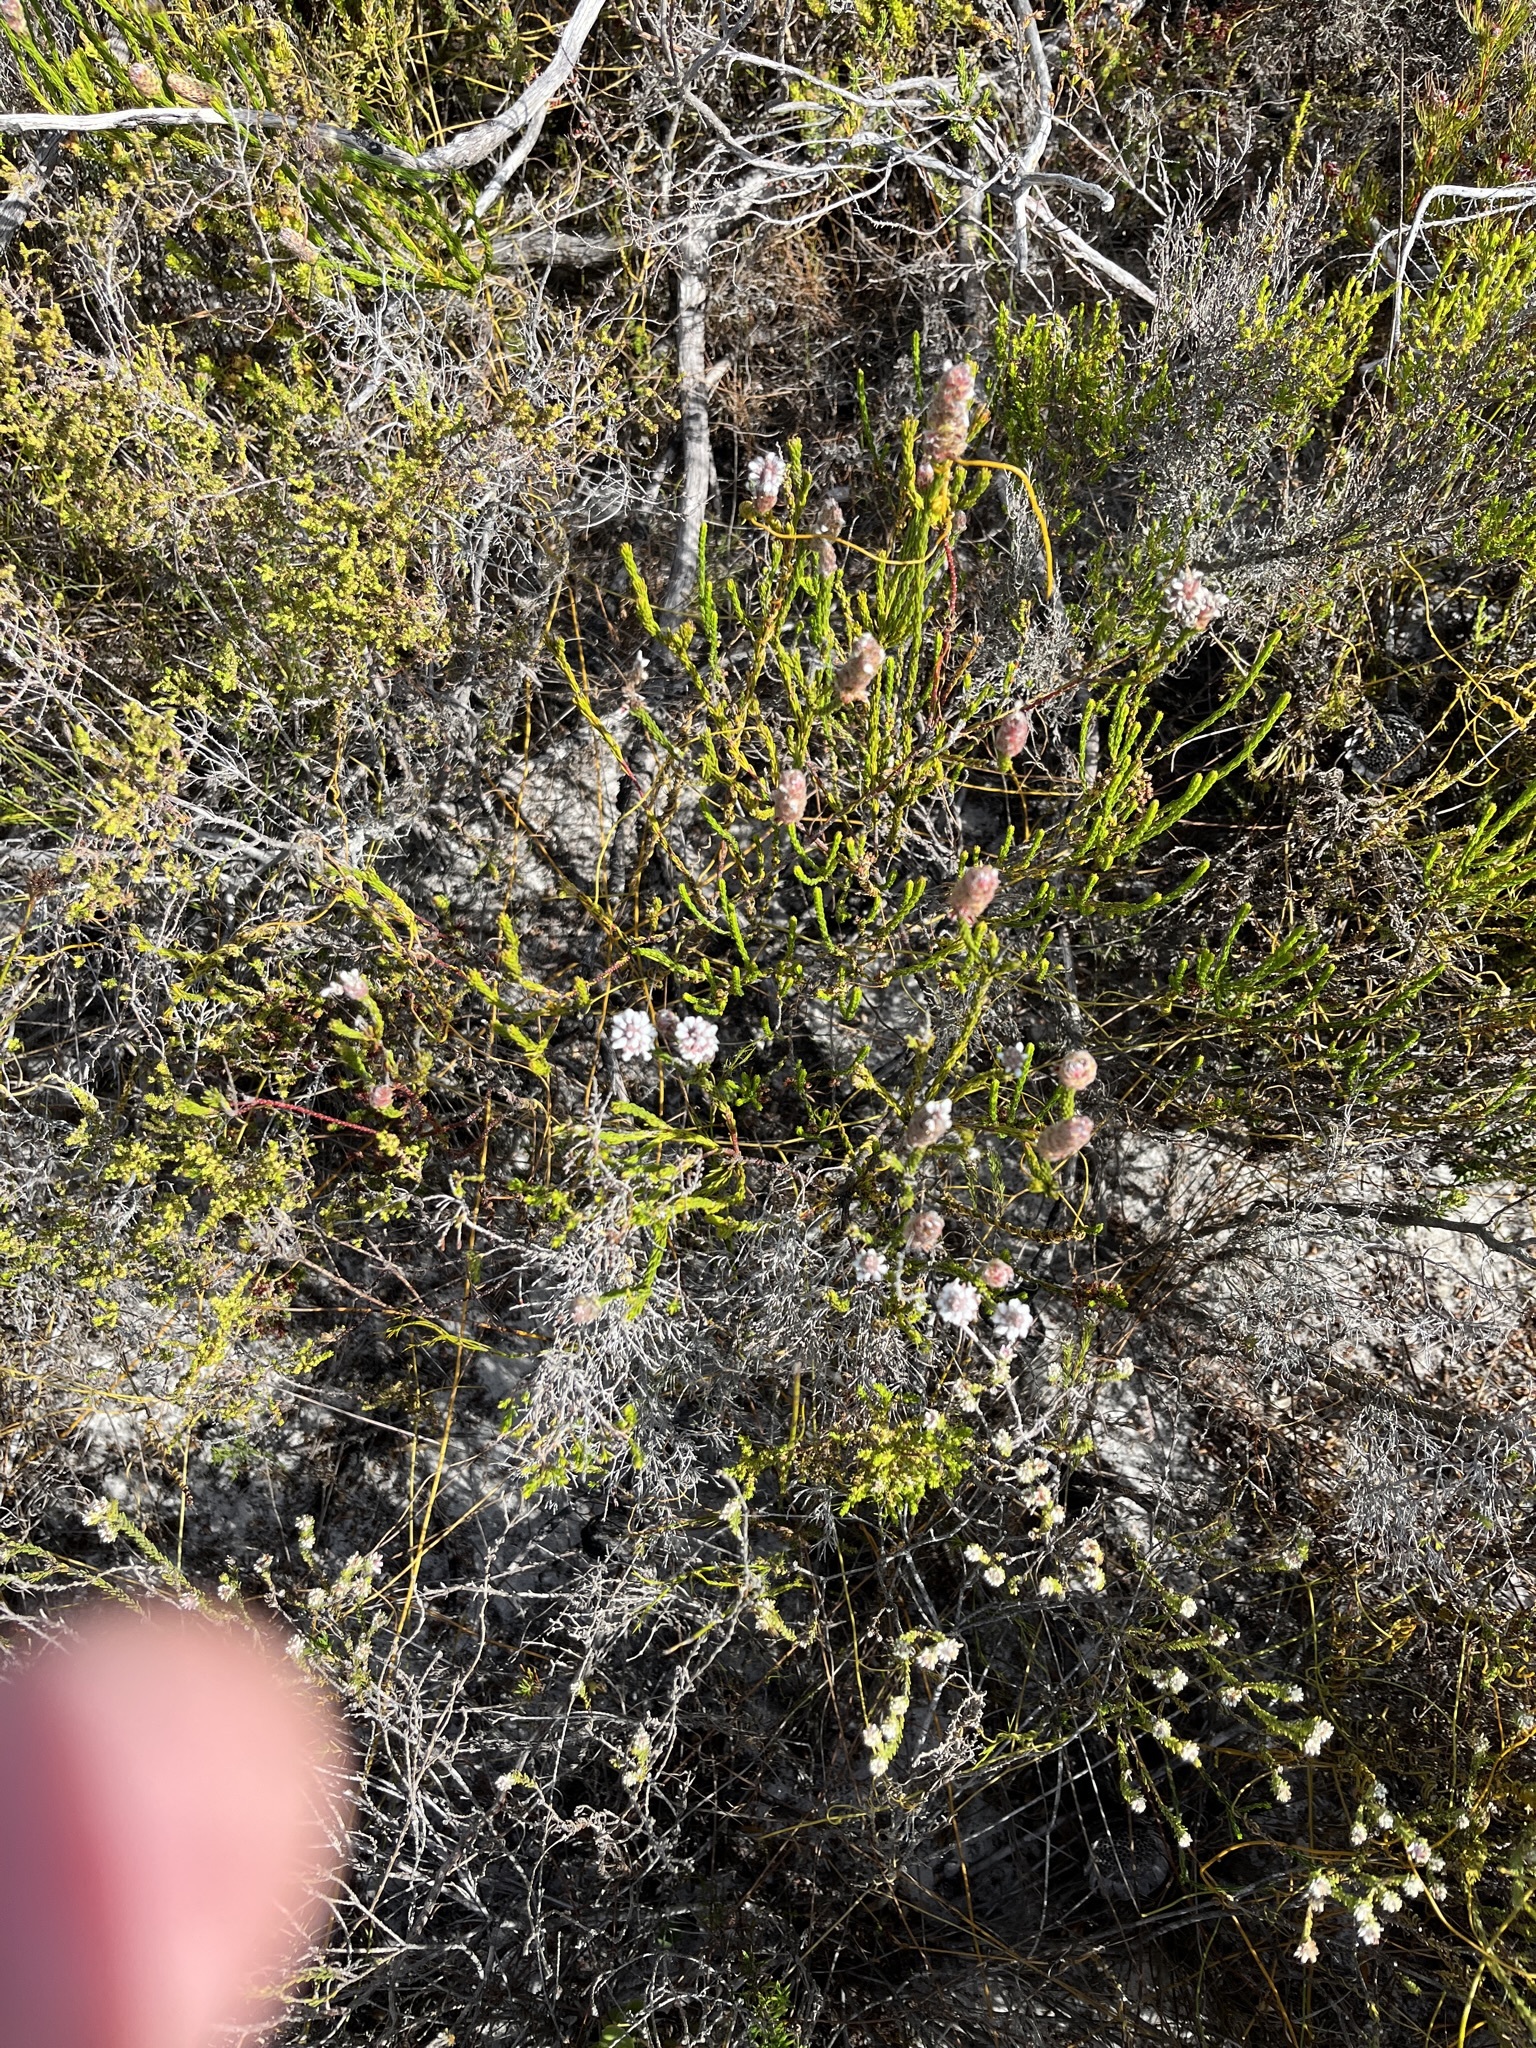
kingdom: Plantae
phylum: Tracheophyta
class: Magnoliopsida
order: Proteales
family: Proteaceae
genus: Spatalla
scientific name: Spatalla ericoides
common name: Erica-leaf spoon
